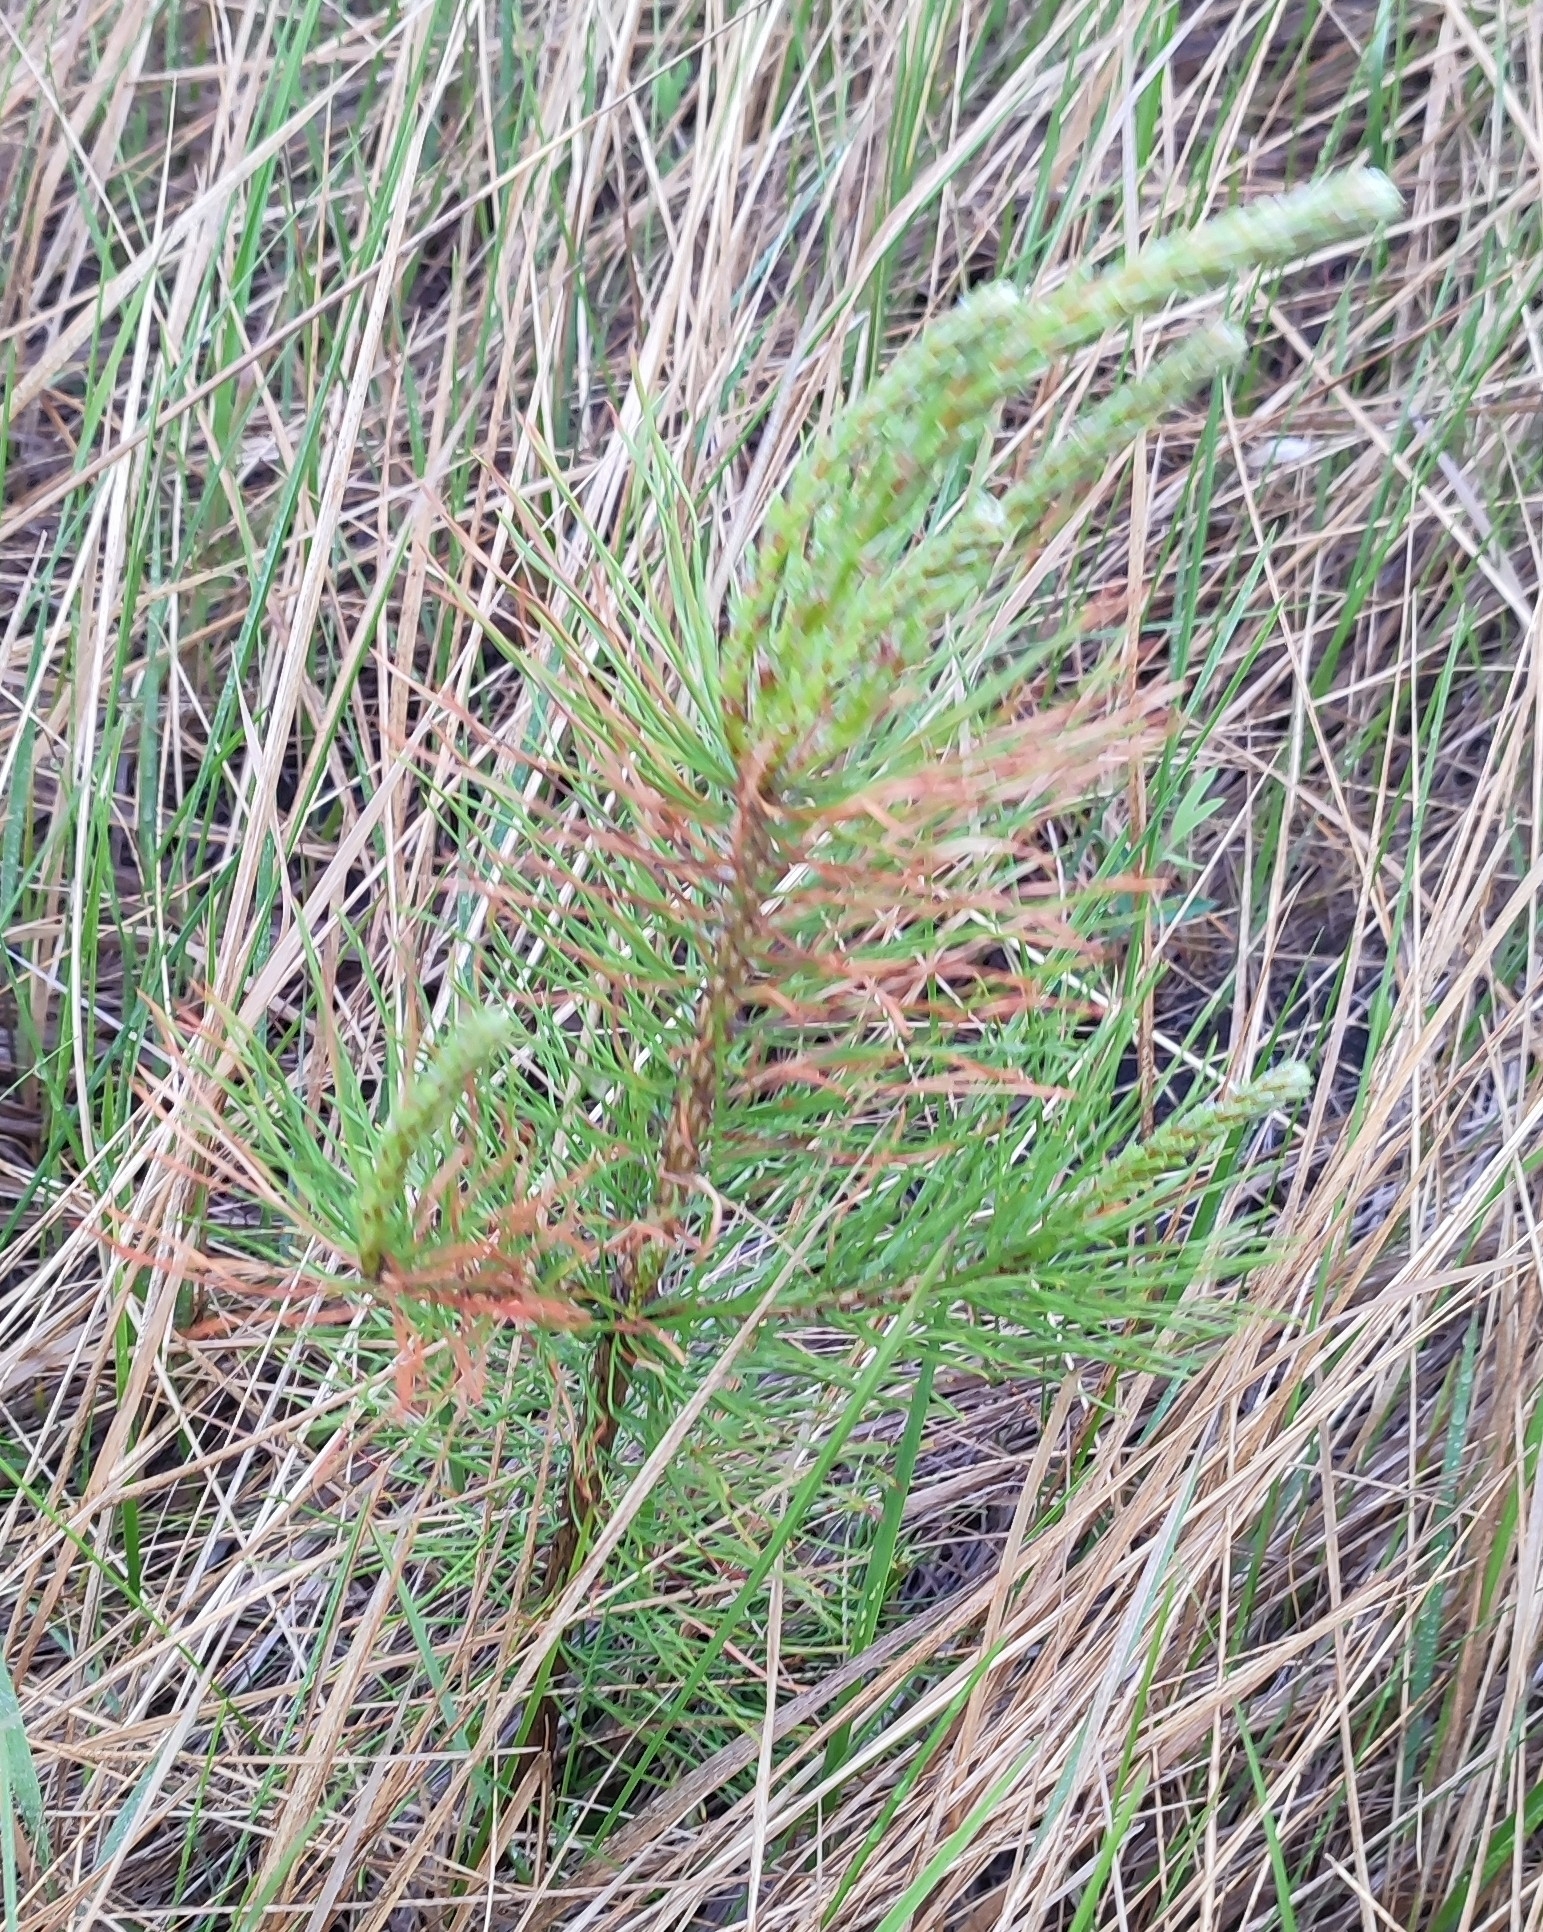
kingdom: Plantae
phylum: Tracheophyta
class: Pinopsida
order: Pinales
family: Pinaceae
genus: Pinus
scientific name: Pinus sylvestris
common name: Scots pine
